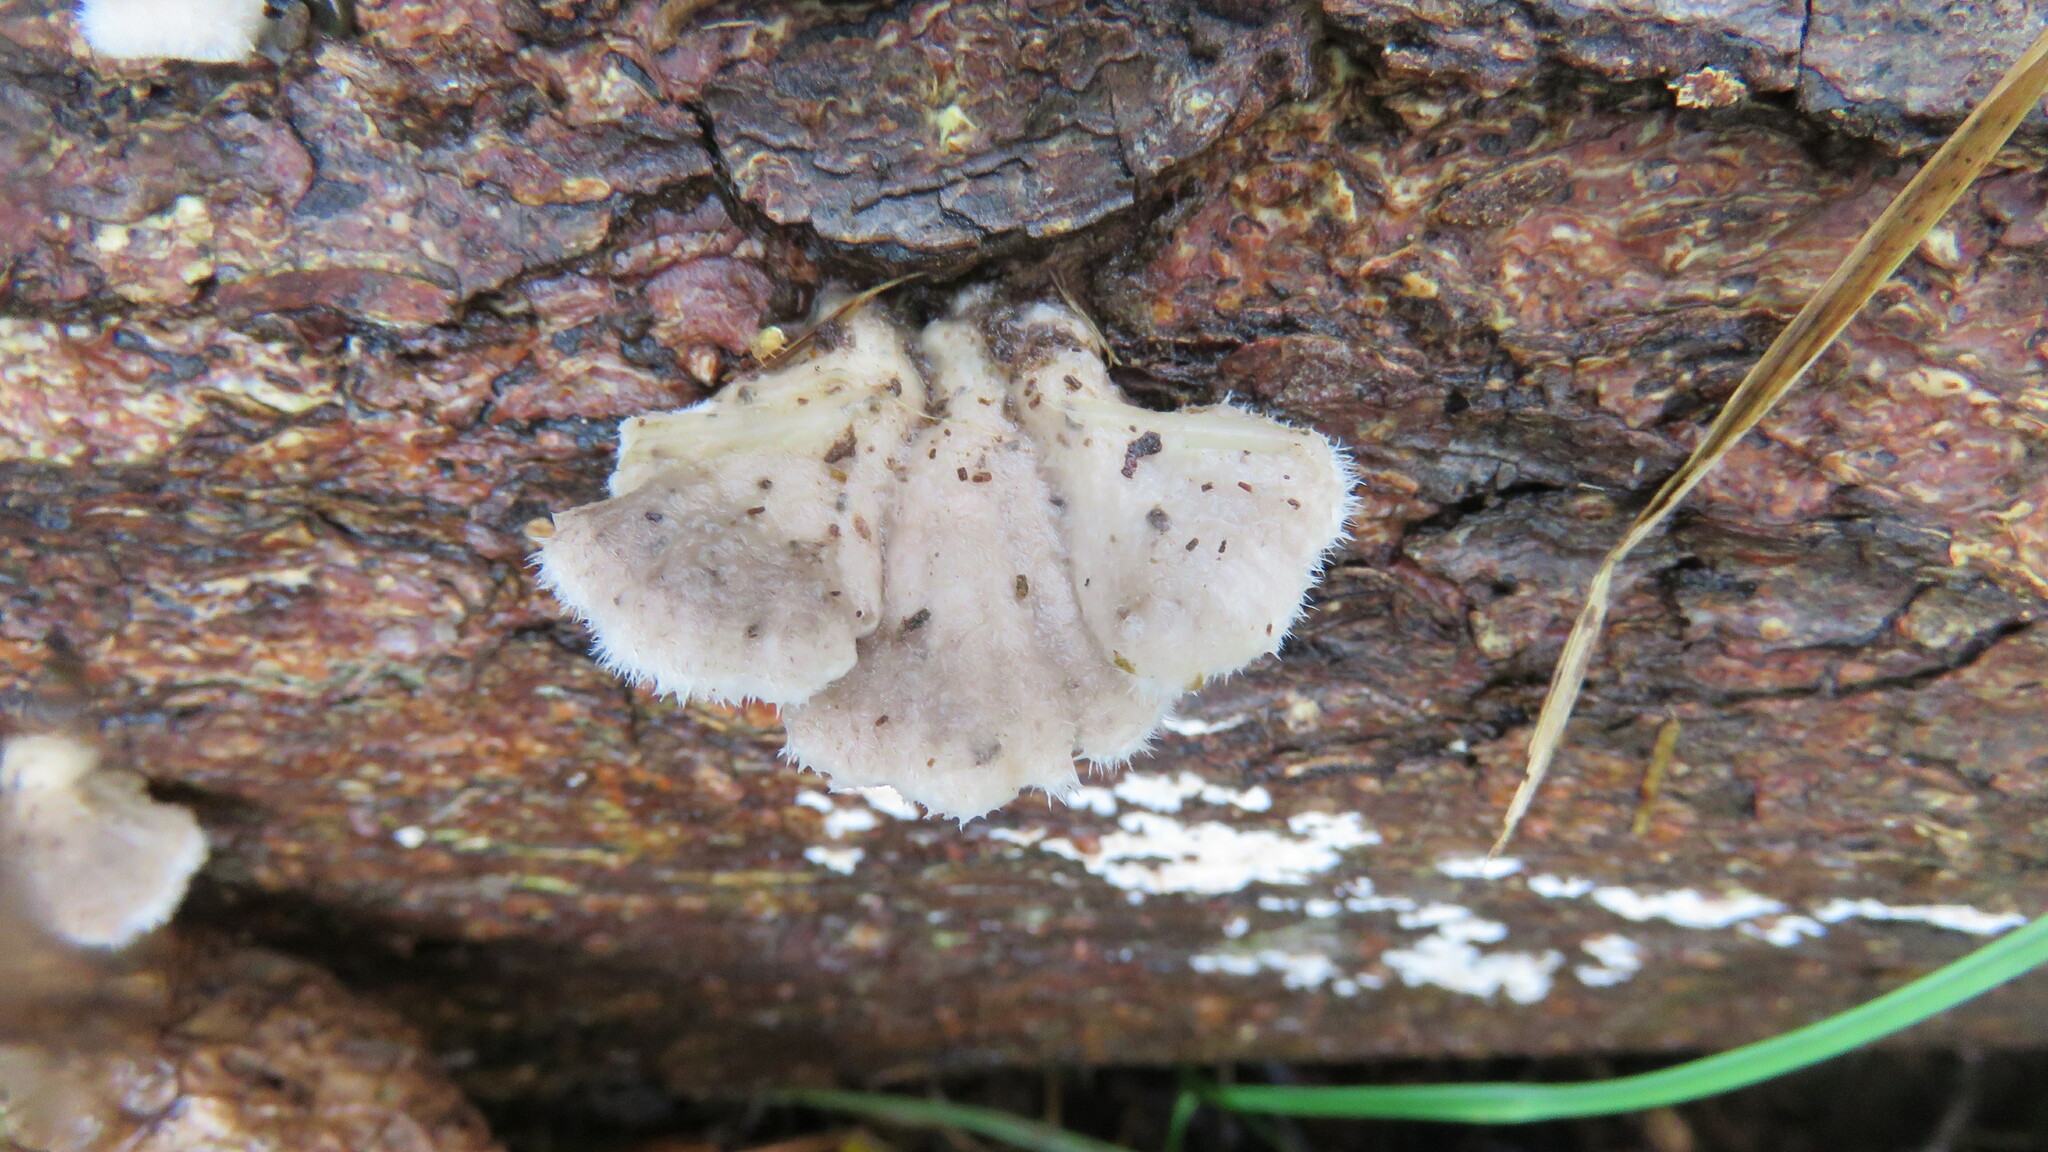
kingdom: Fungi
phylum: Basidiomycota
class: Agaricomycetes
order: Agaricales
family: Schizophyllaceae
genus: Schizophyllum
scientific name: Schizophyllum commune
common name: Common porecrust
